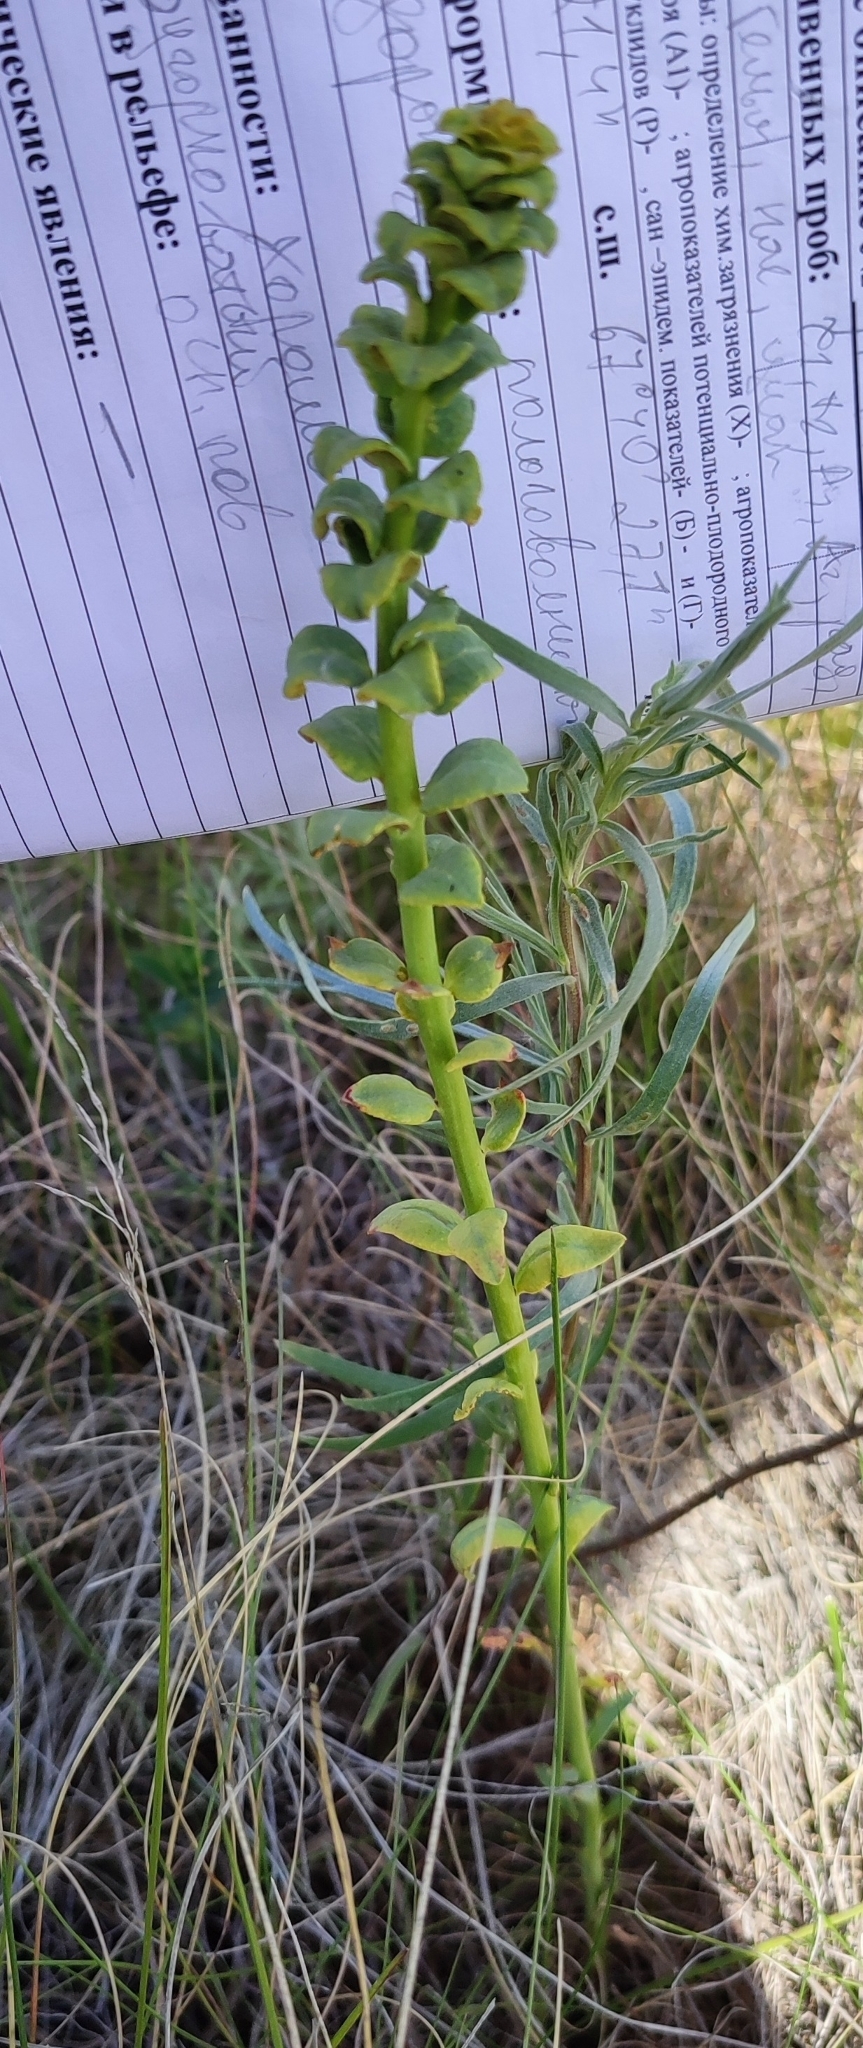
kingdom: Plantae
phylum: Tracheophyta
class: Magnoliopsida
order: Malpighiales
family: Euphorbiaceae
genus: Euphorbia
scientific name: Euphorbia virgata
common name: Leafy spurge
